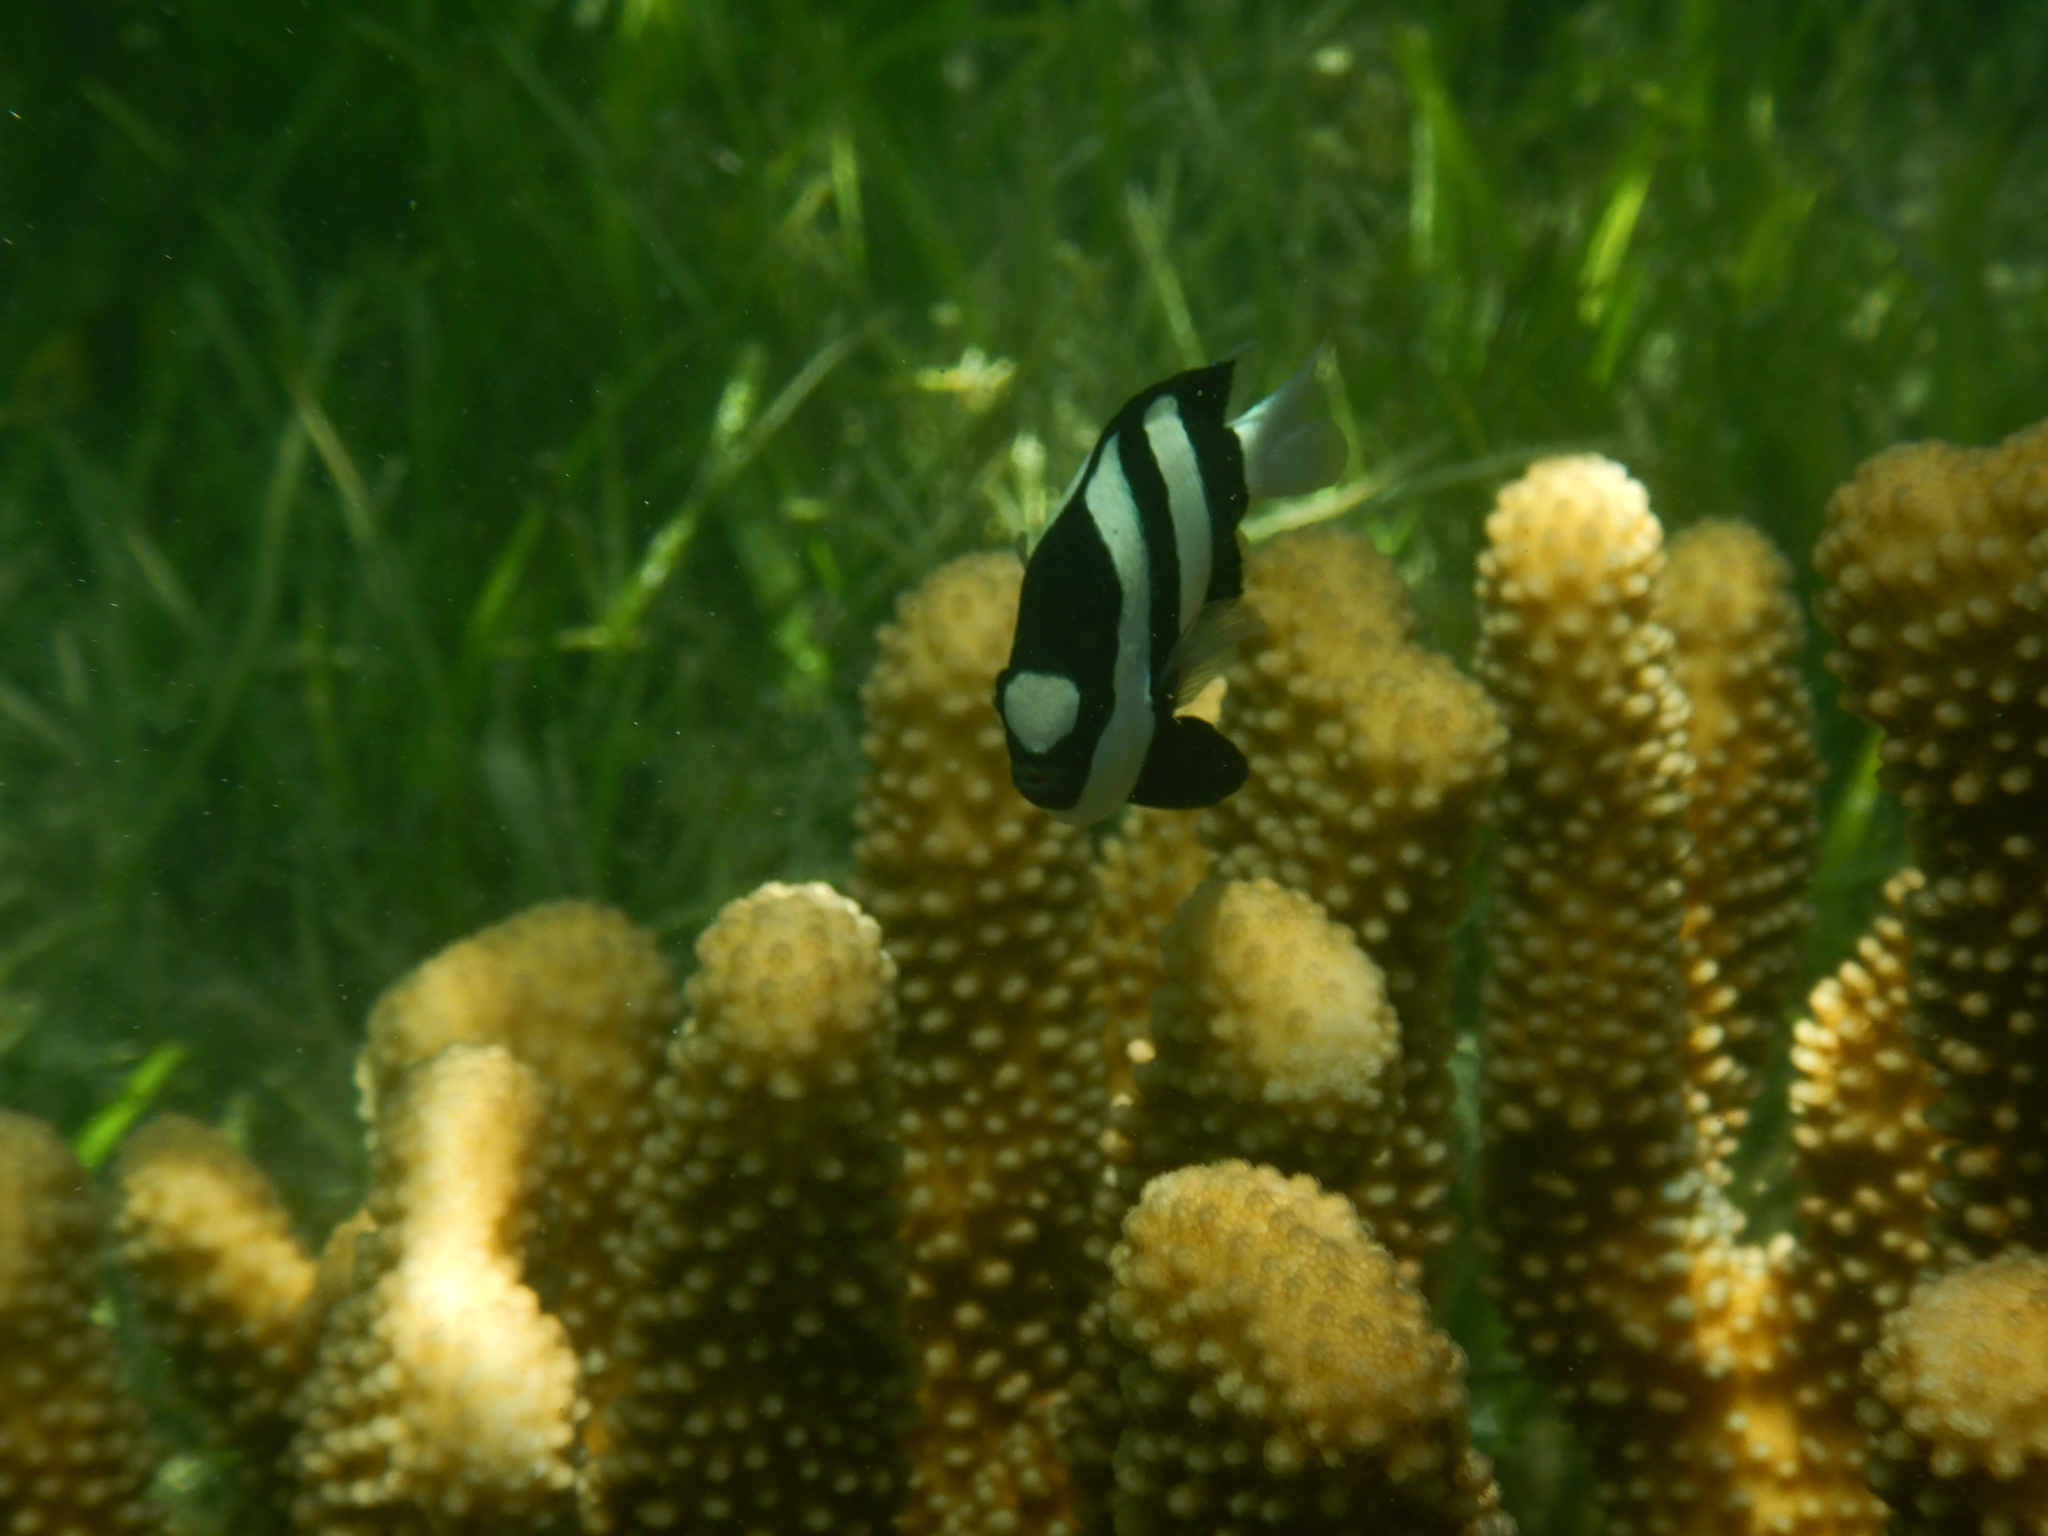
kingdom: Animalia
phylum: Chordata
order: Perciformes
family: Pomacentridae
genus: Dascyllus
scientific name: Dascyllus aruanus
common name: Humbug dascyllus
